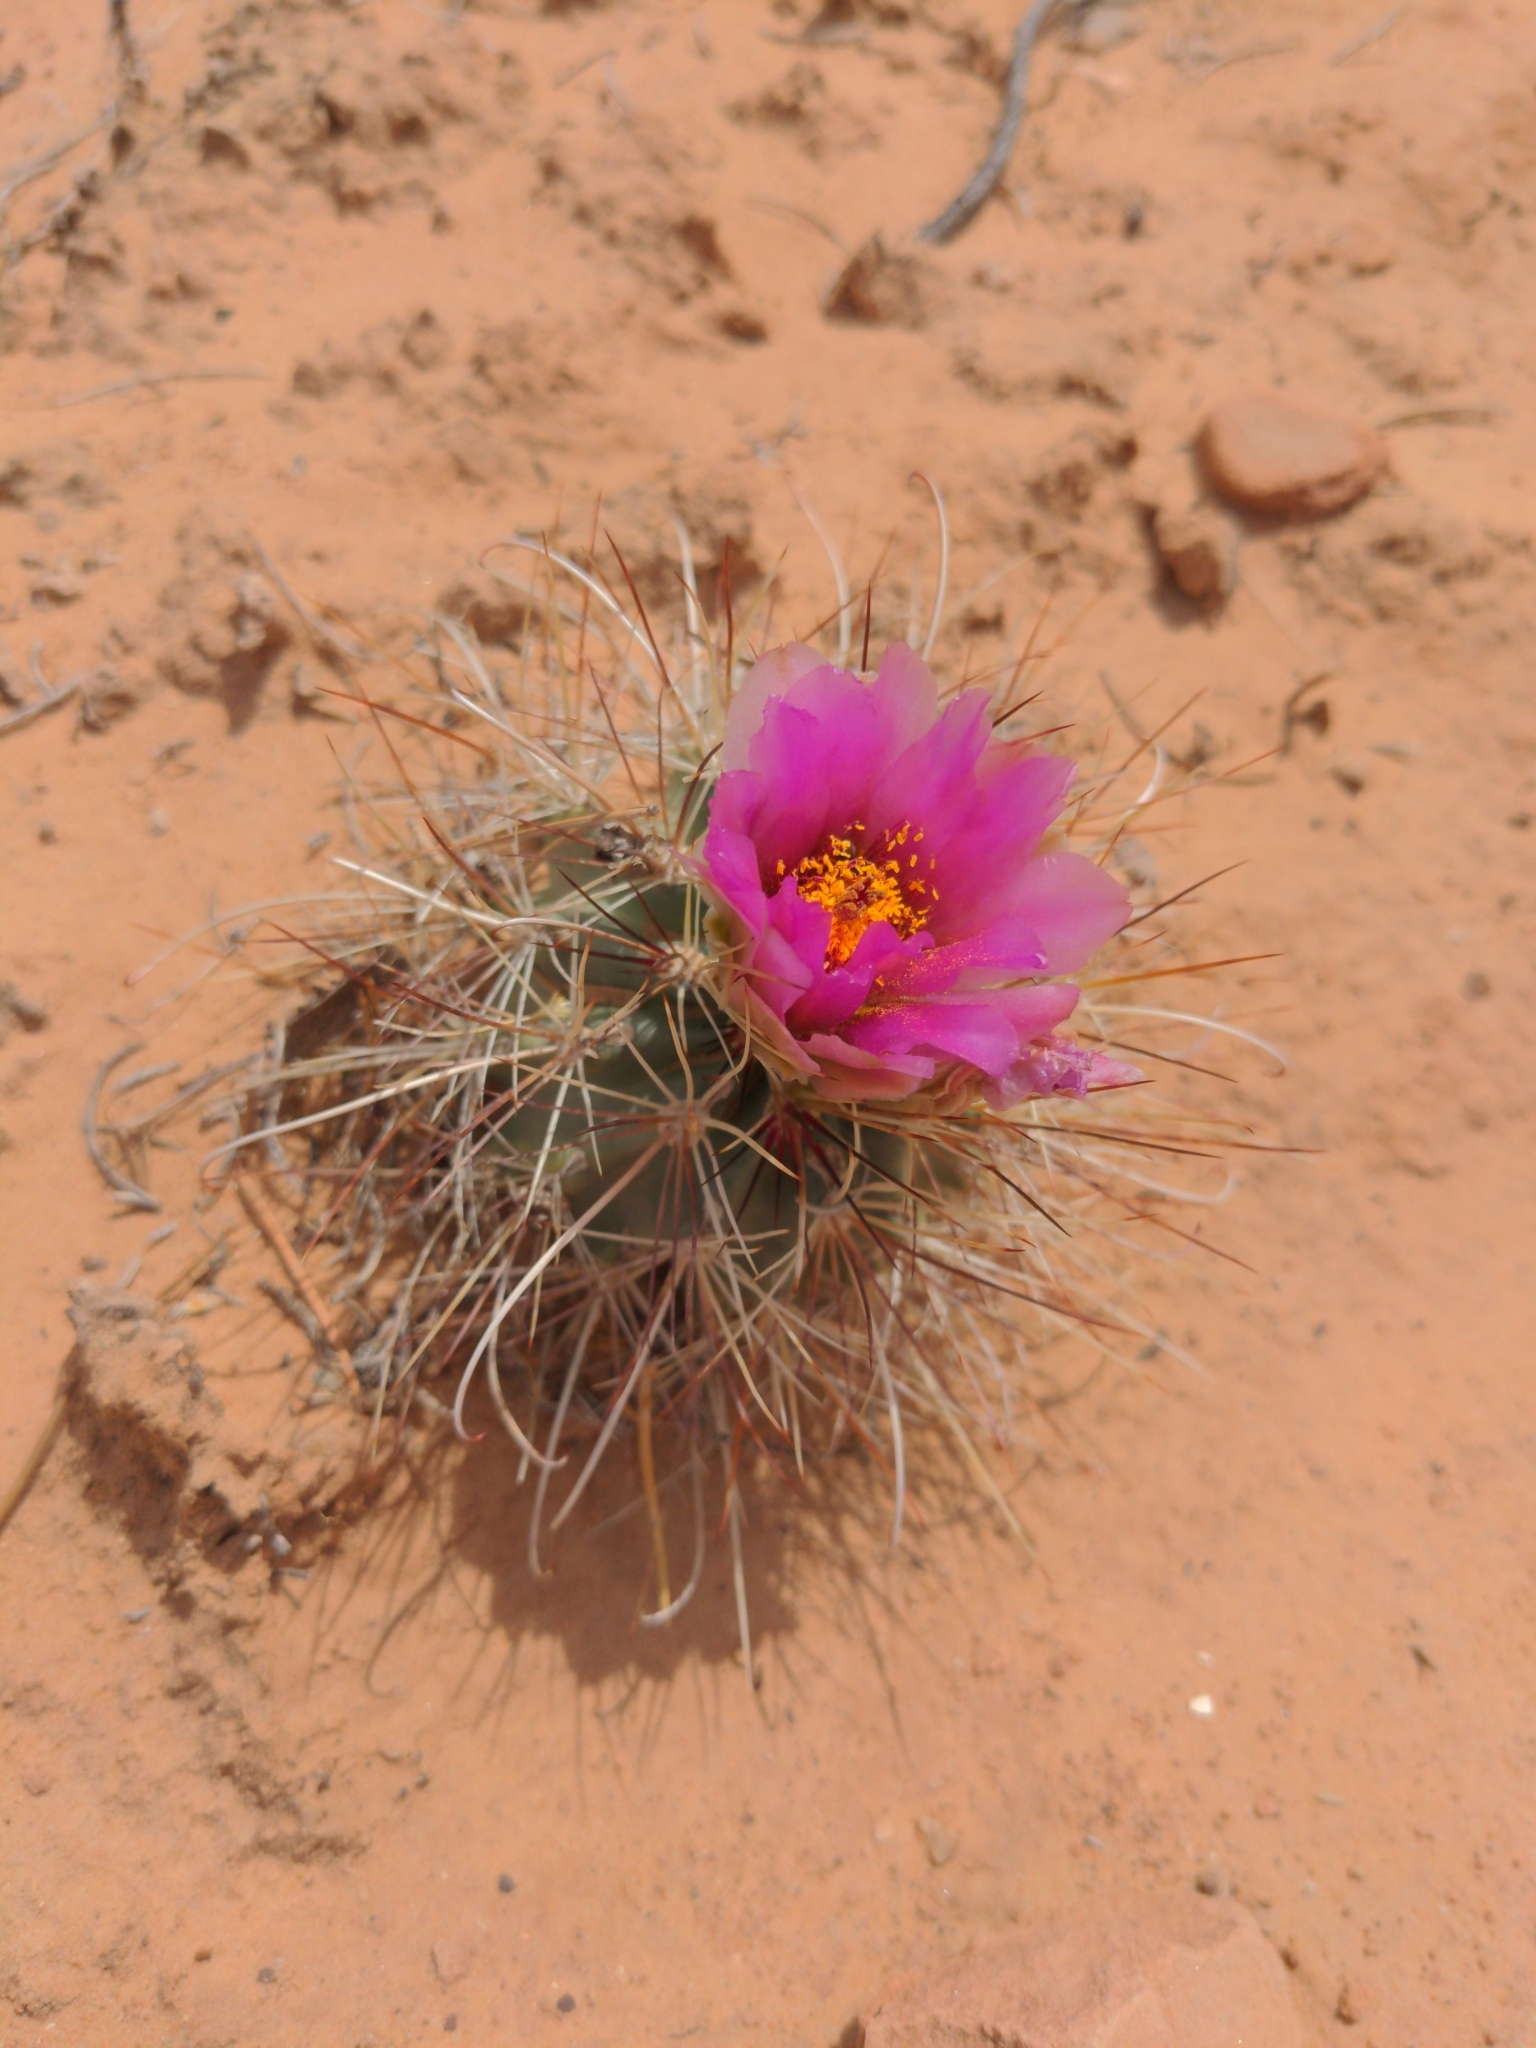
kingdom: Plantae
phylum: Tracheophyta
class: Magnoliopsida
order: Caryophyllales
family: Cactaceae
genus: Sclerocactus
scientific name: Sclerocactus parviflorus
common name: Small-flower fishhook cactus
